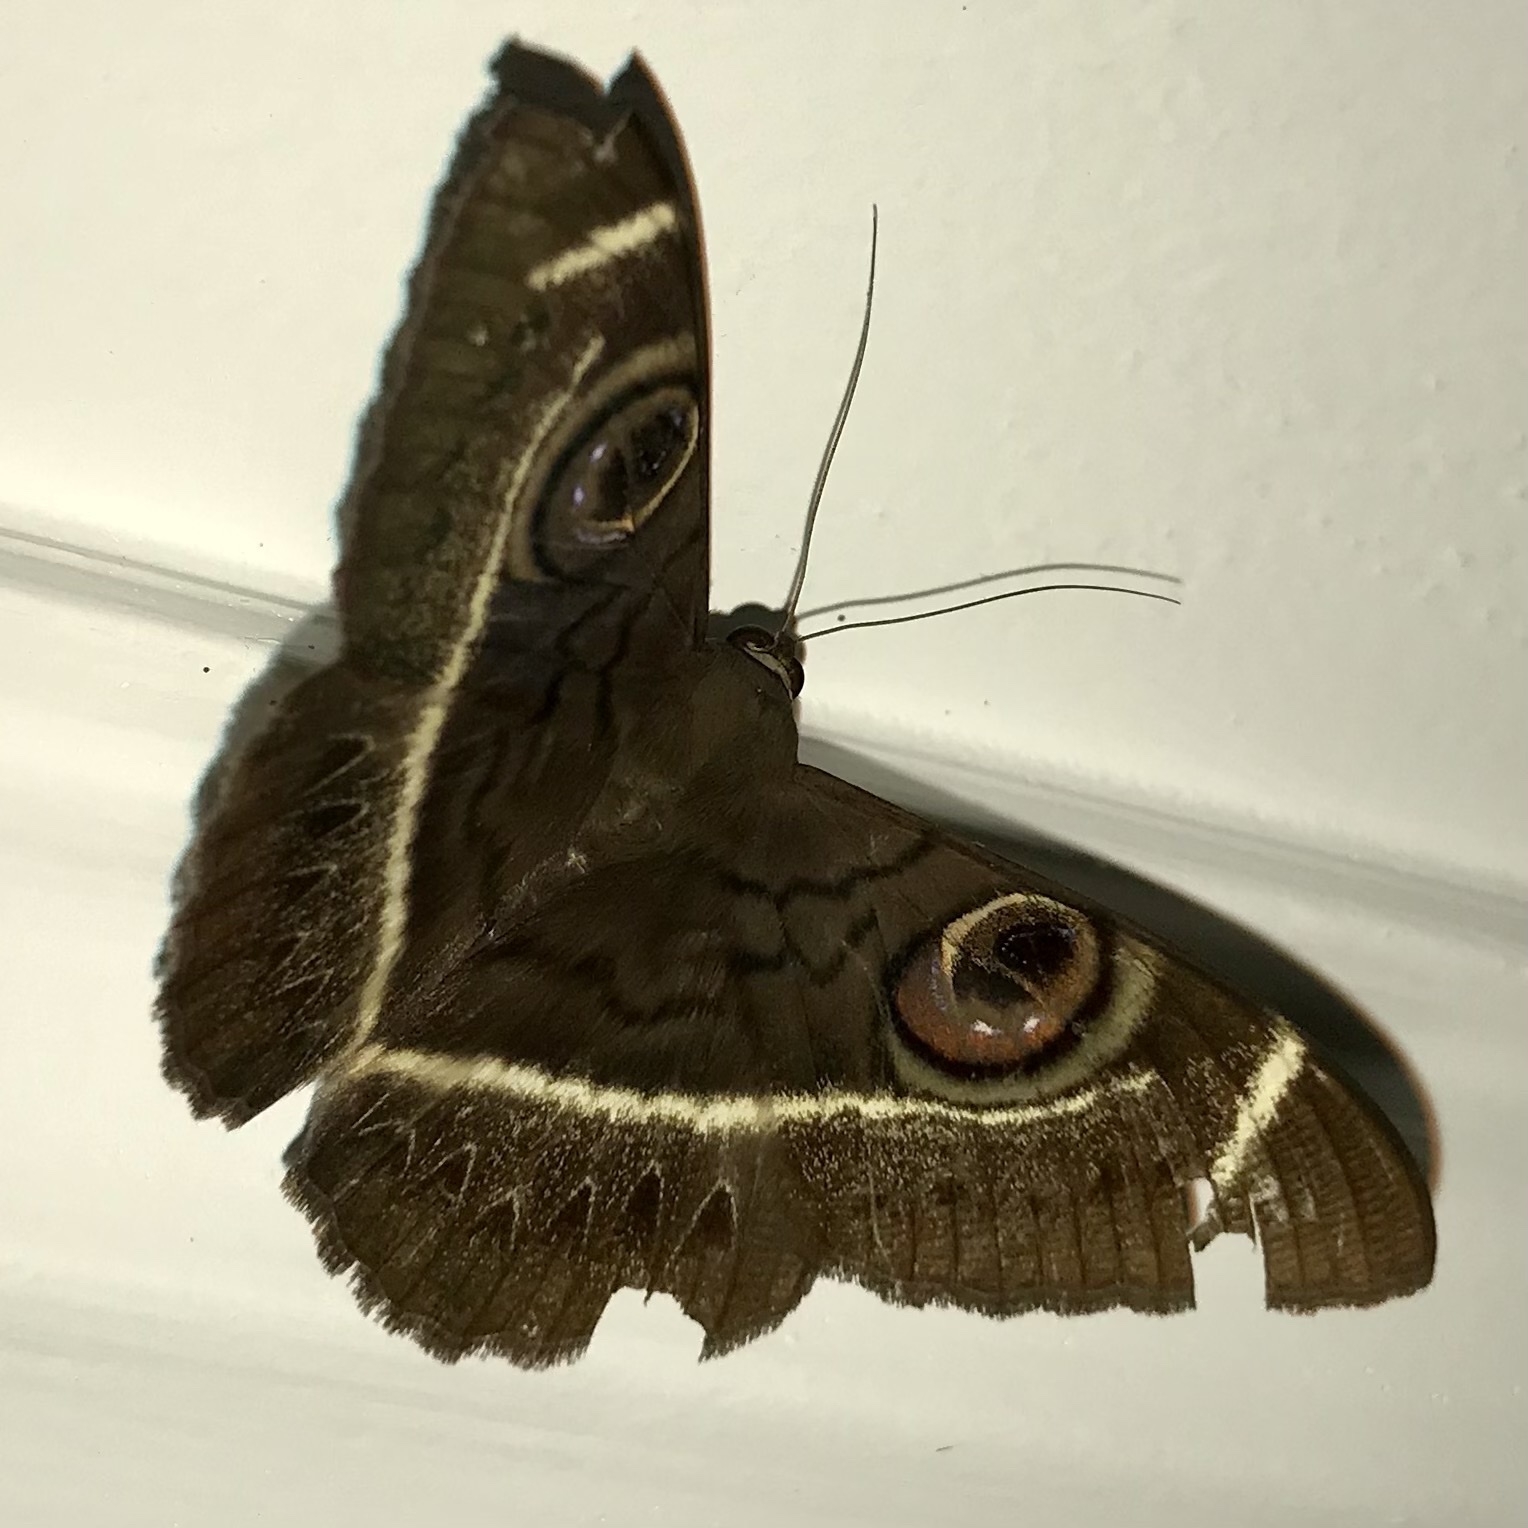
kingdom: Animalia
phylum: Arthropoda
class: Insecta
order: Lepidoptera
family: Erebidae
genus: Cyligramma
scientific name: Cyligramma latona
